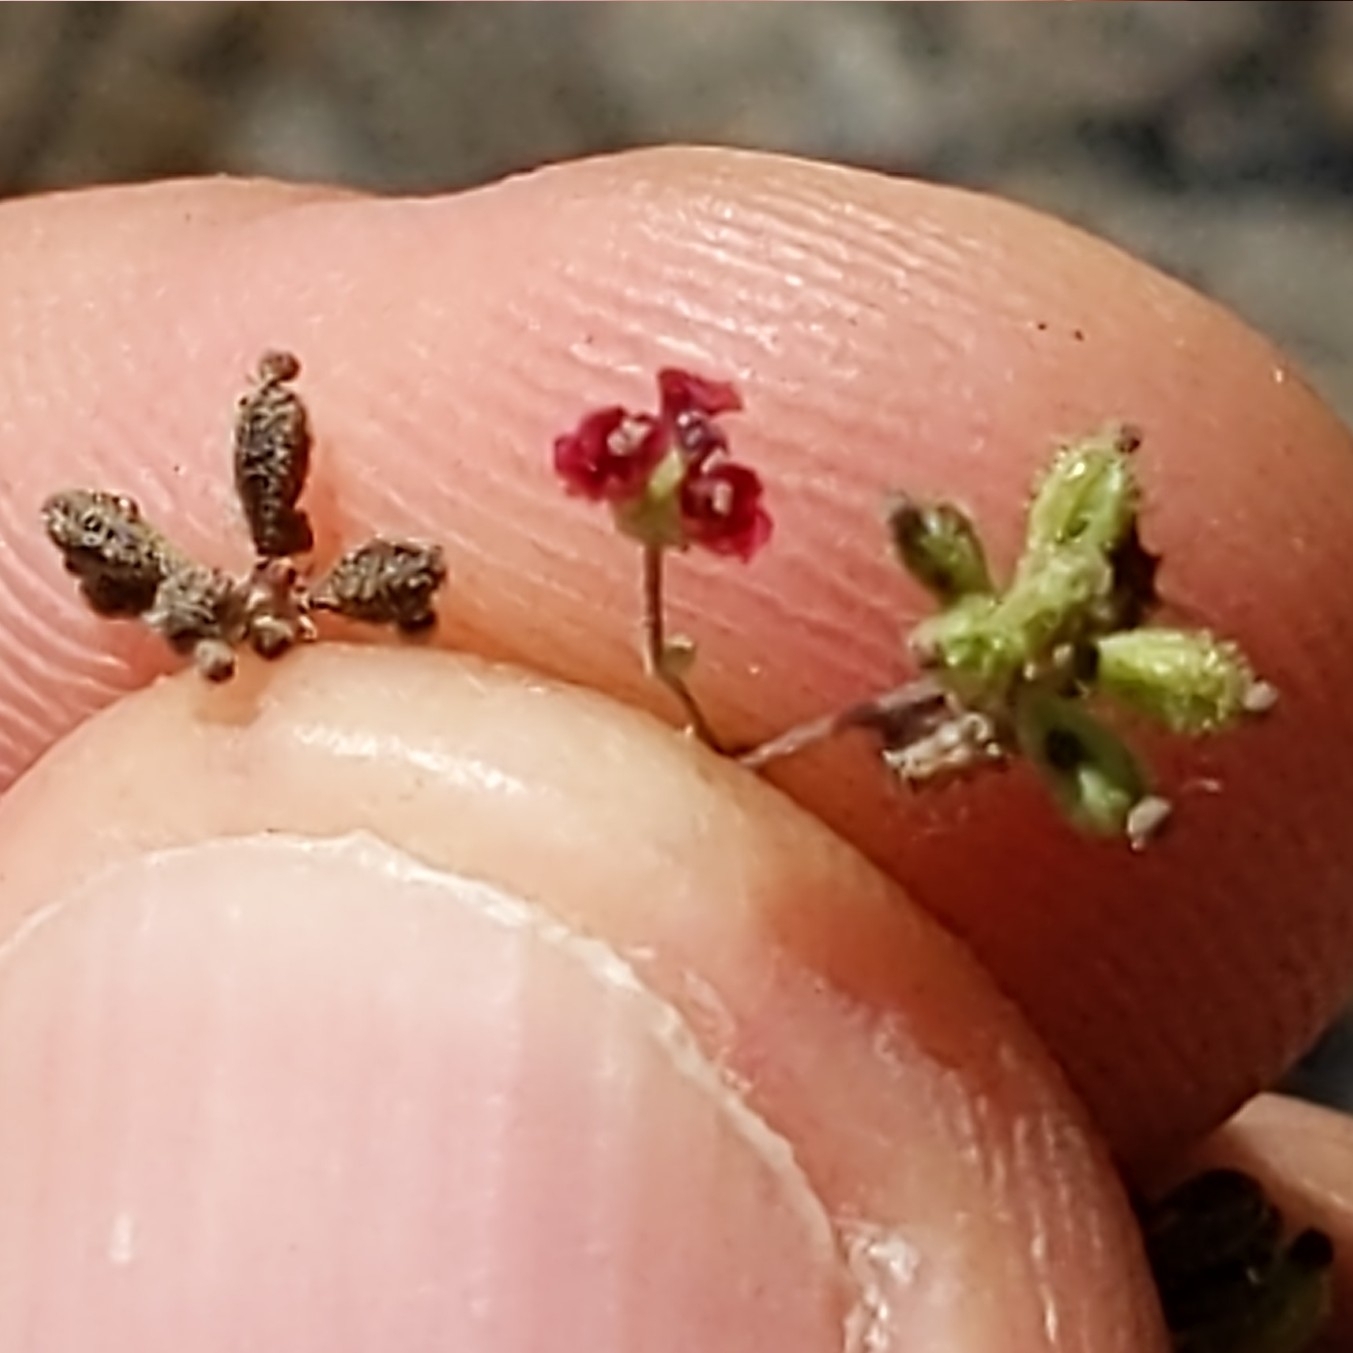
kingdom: Plantae
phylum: Tracheophyta
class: Magnoliopsida
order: Caryophyllales
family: Nyctaginaceae
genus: Boerhavia
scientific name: Boerhavia coccinea
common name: Scarlet spiderling
